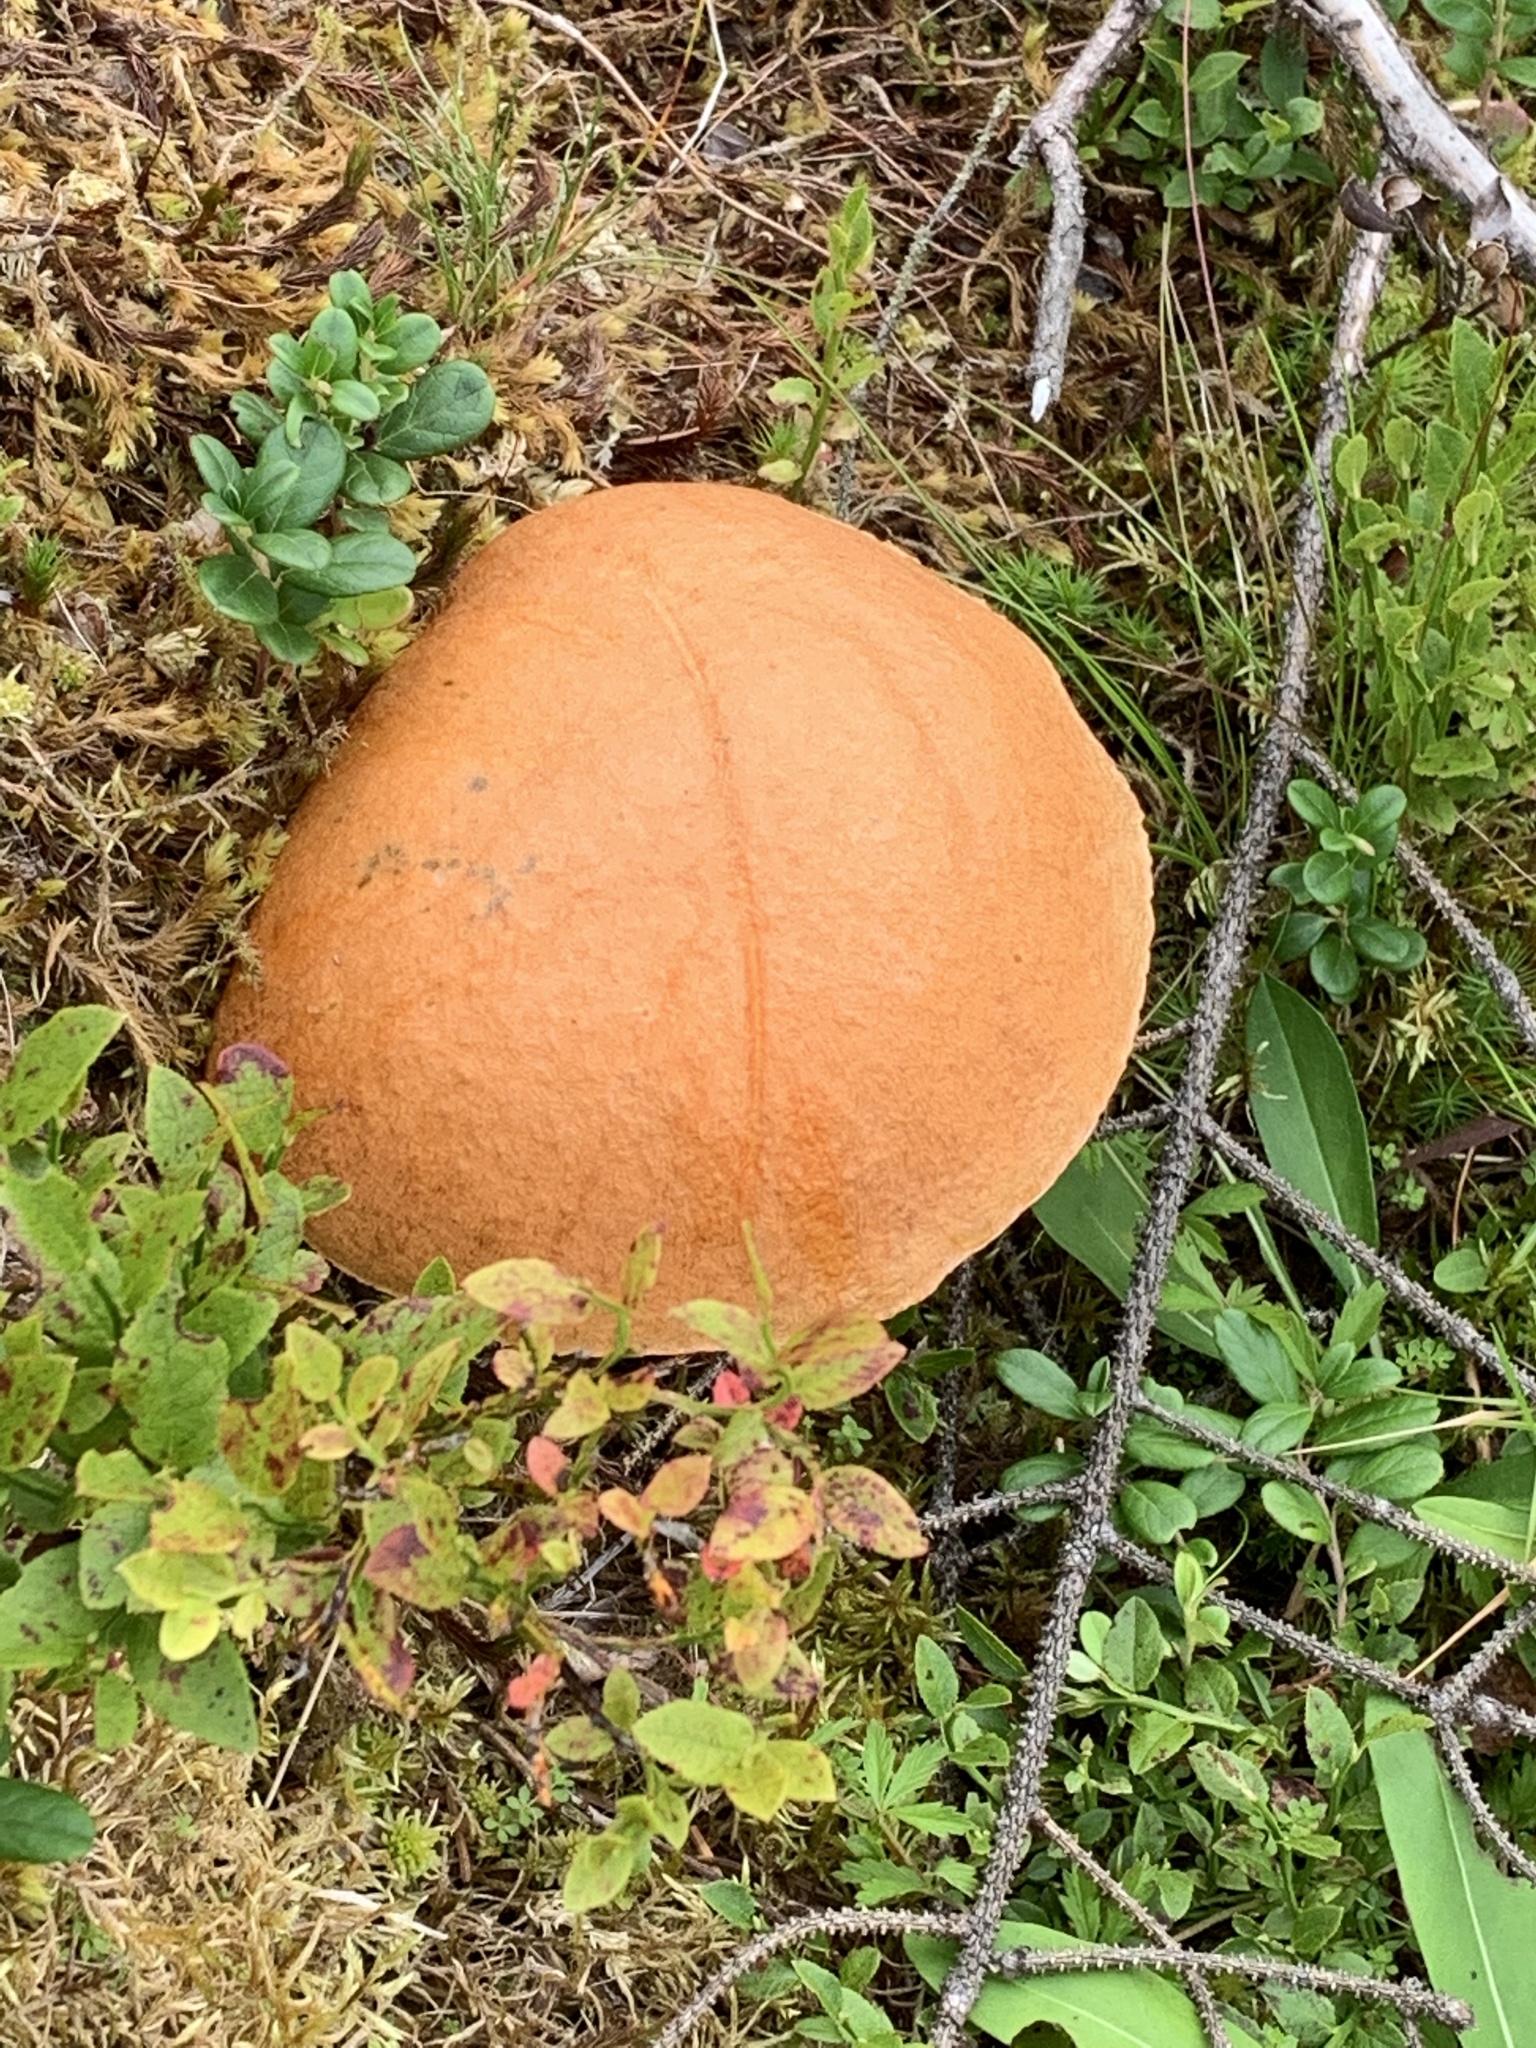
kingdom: Fungi
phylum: Basidiomycota
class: Agaricomycetes
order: Boletales
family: Boletaceae
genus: Leccinum
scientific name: Leccinum versipelle
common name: Orange birch bolete
